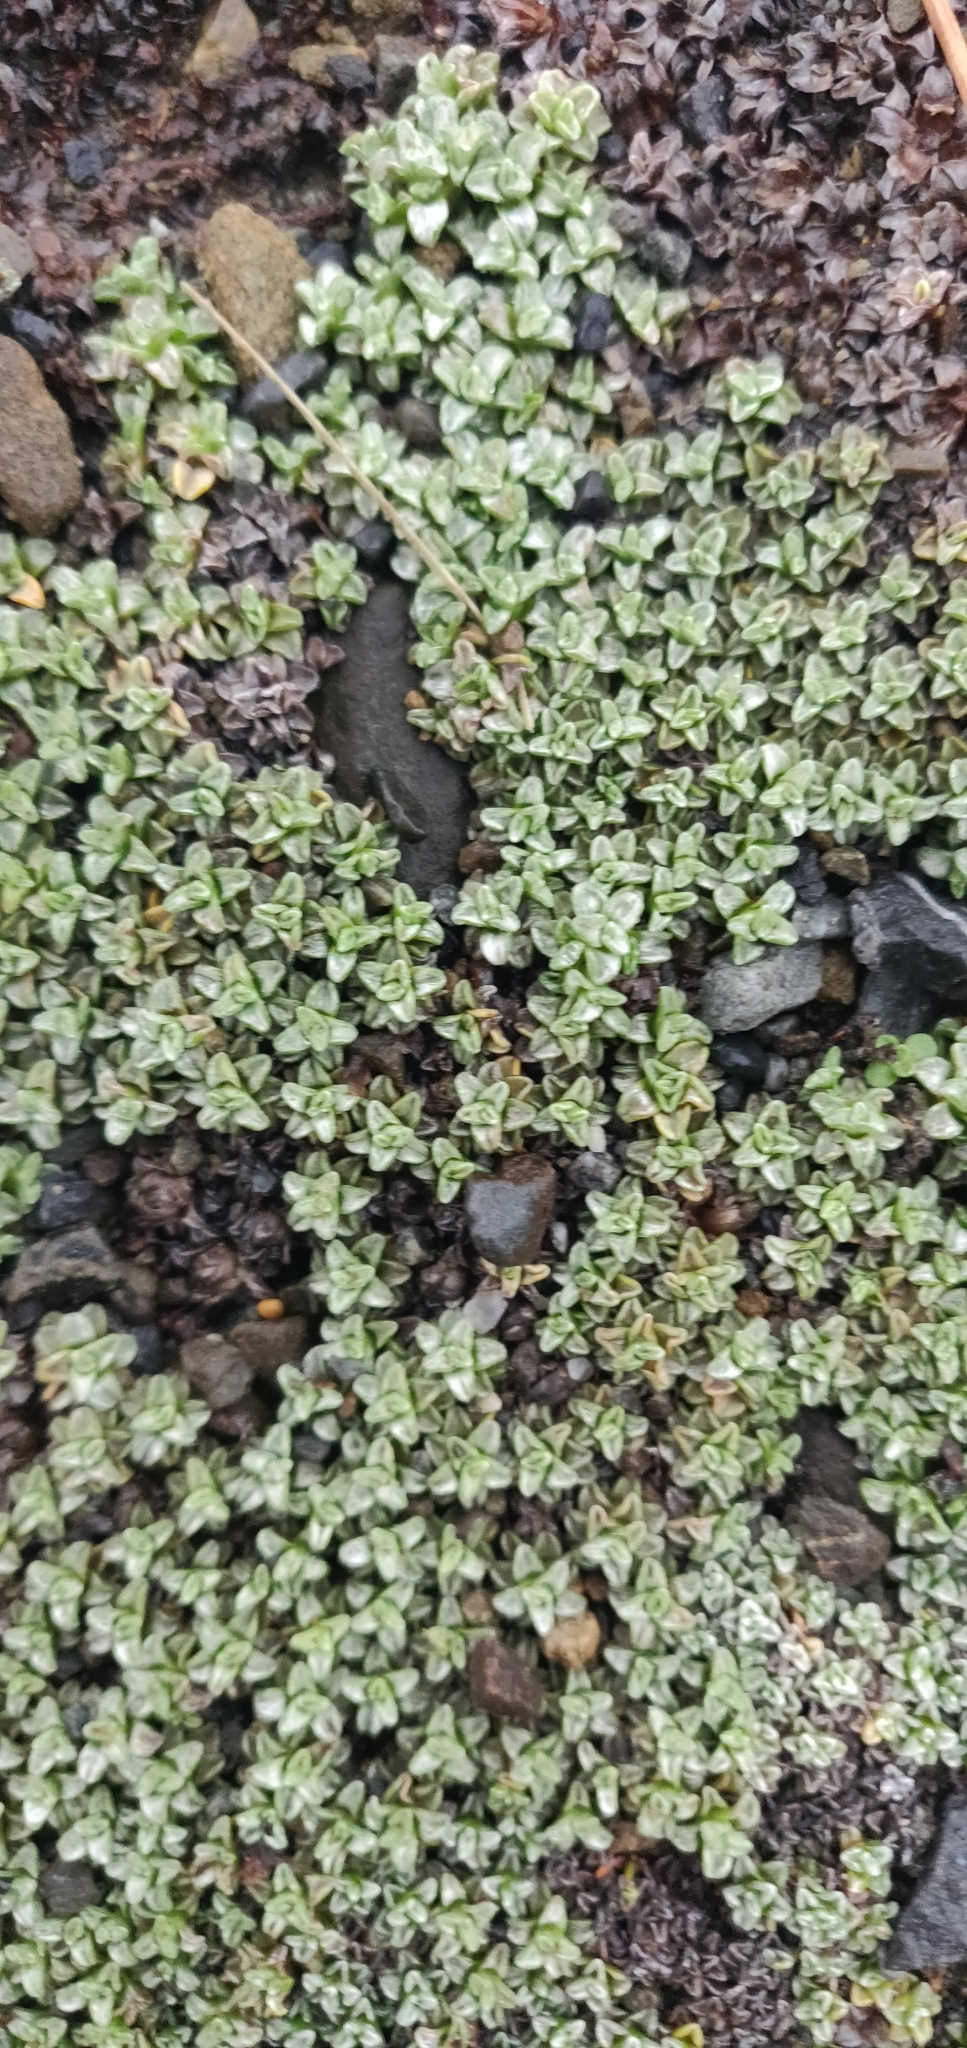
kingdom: Plantae
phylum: Tracheophyta
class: Magnoliopsida
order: Asterales
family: Asteraceae
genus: Raoulia
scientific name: Raoulia hookeri
